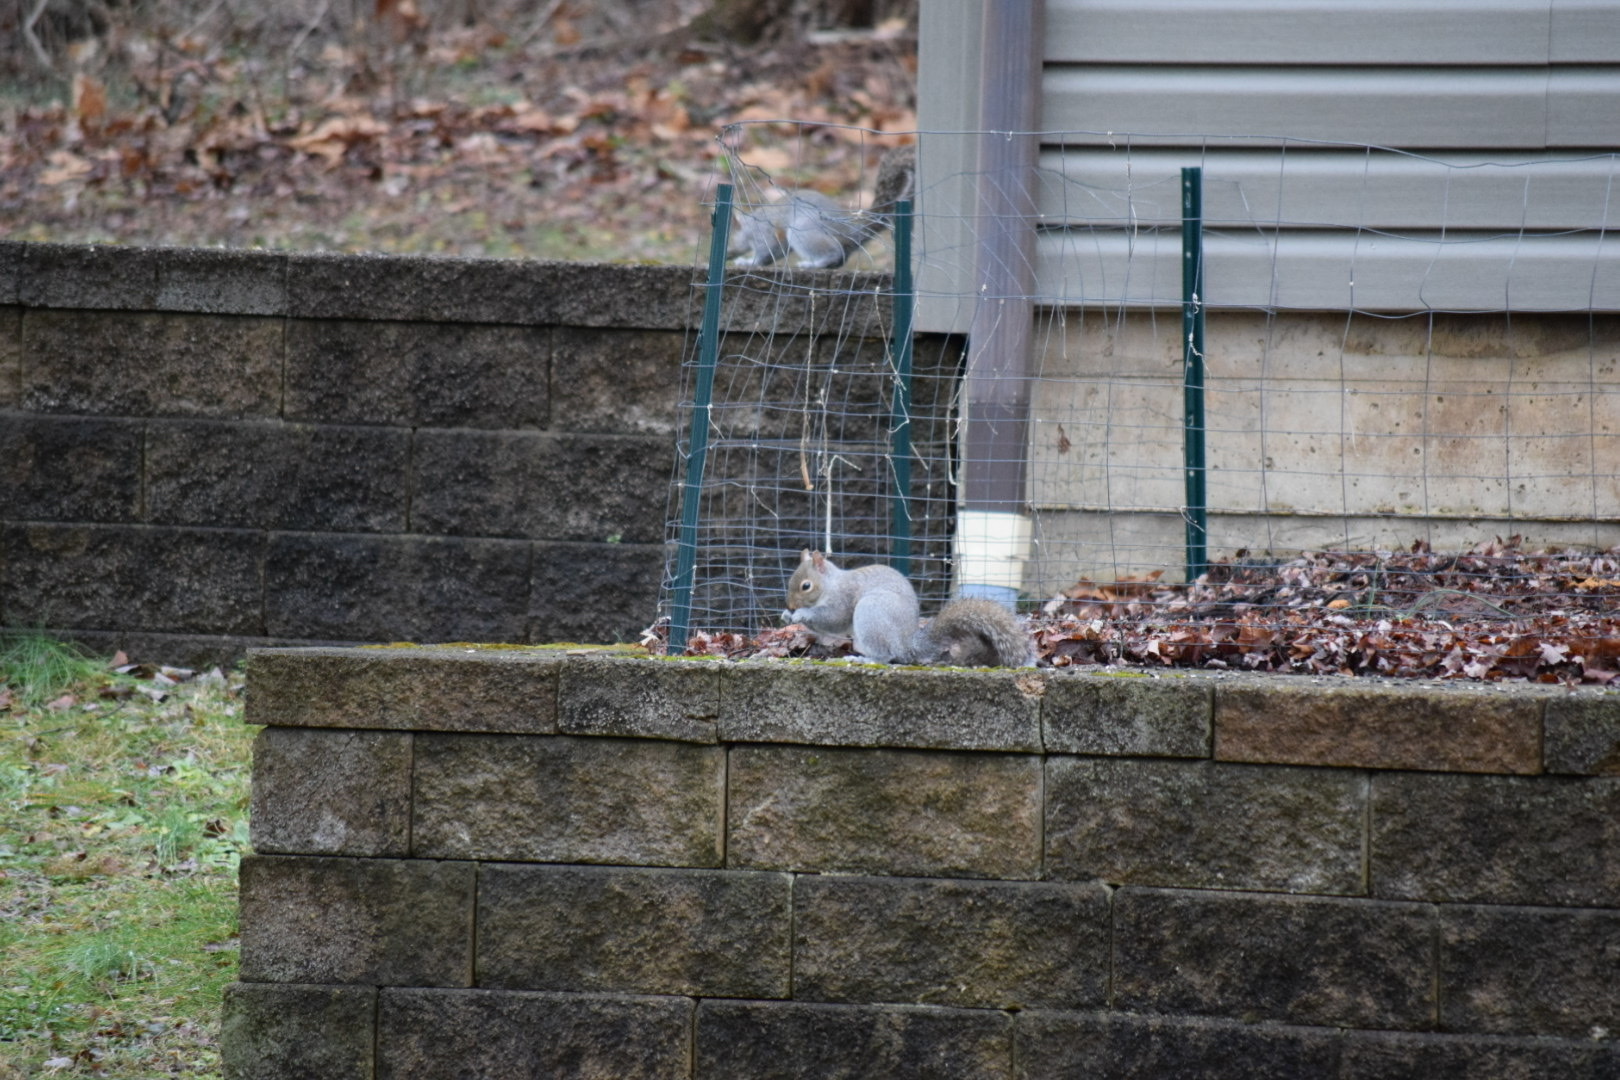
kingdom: Animalia
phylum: Chordata
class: Mammalia
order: Rodentia
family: Sciuridae
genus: Sciurus
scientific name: Sciurus carolinensis
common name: Eastern gray squirrel
